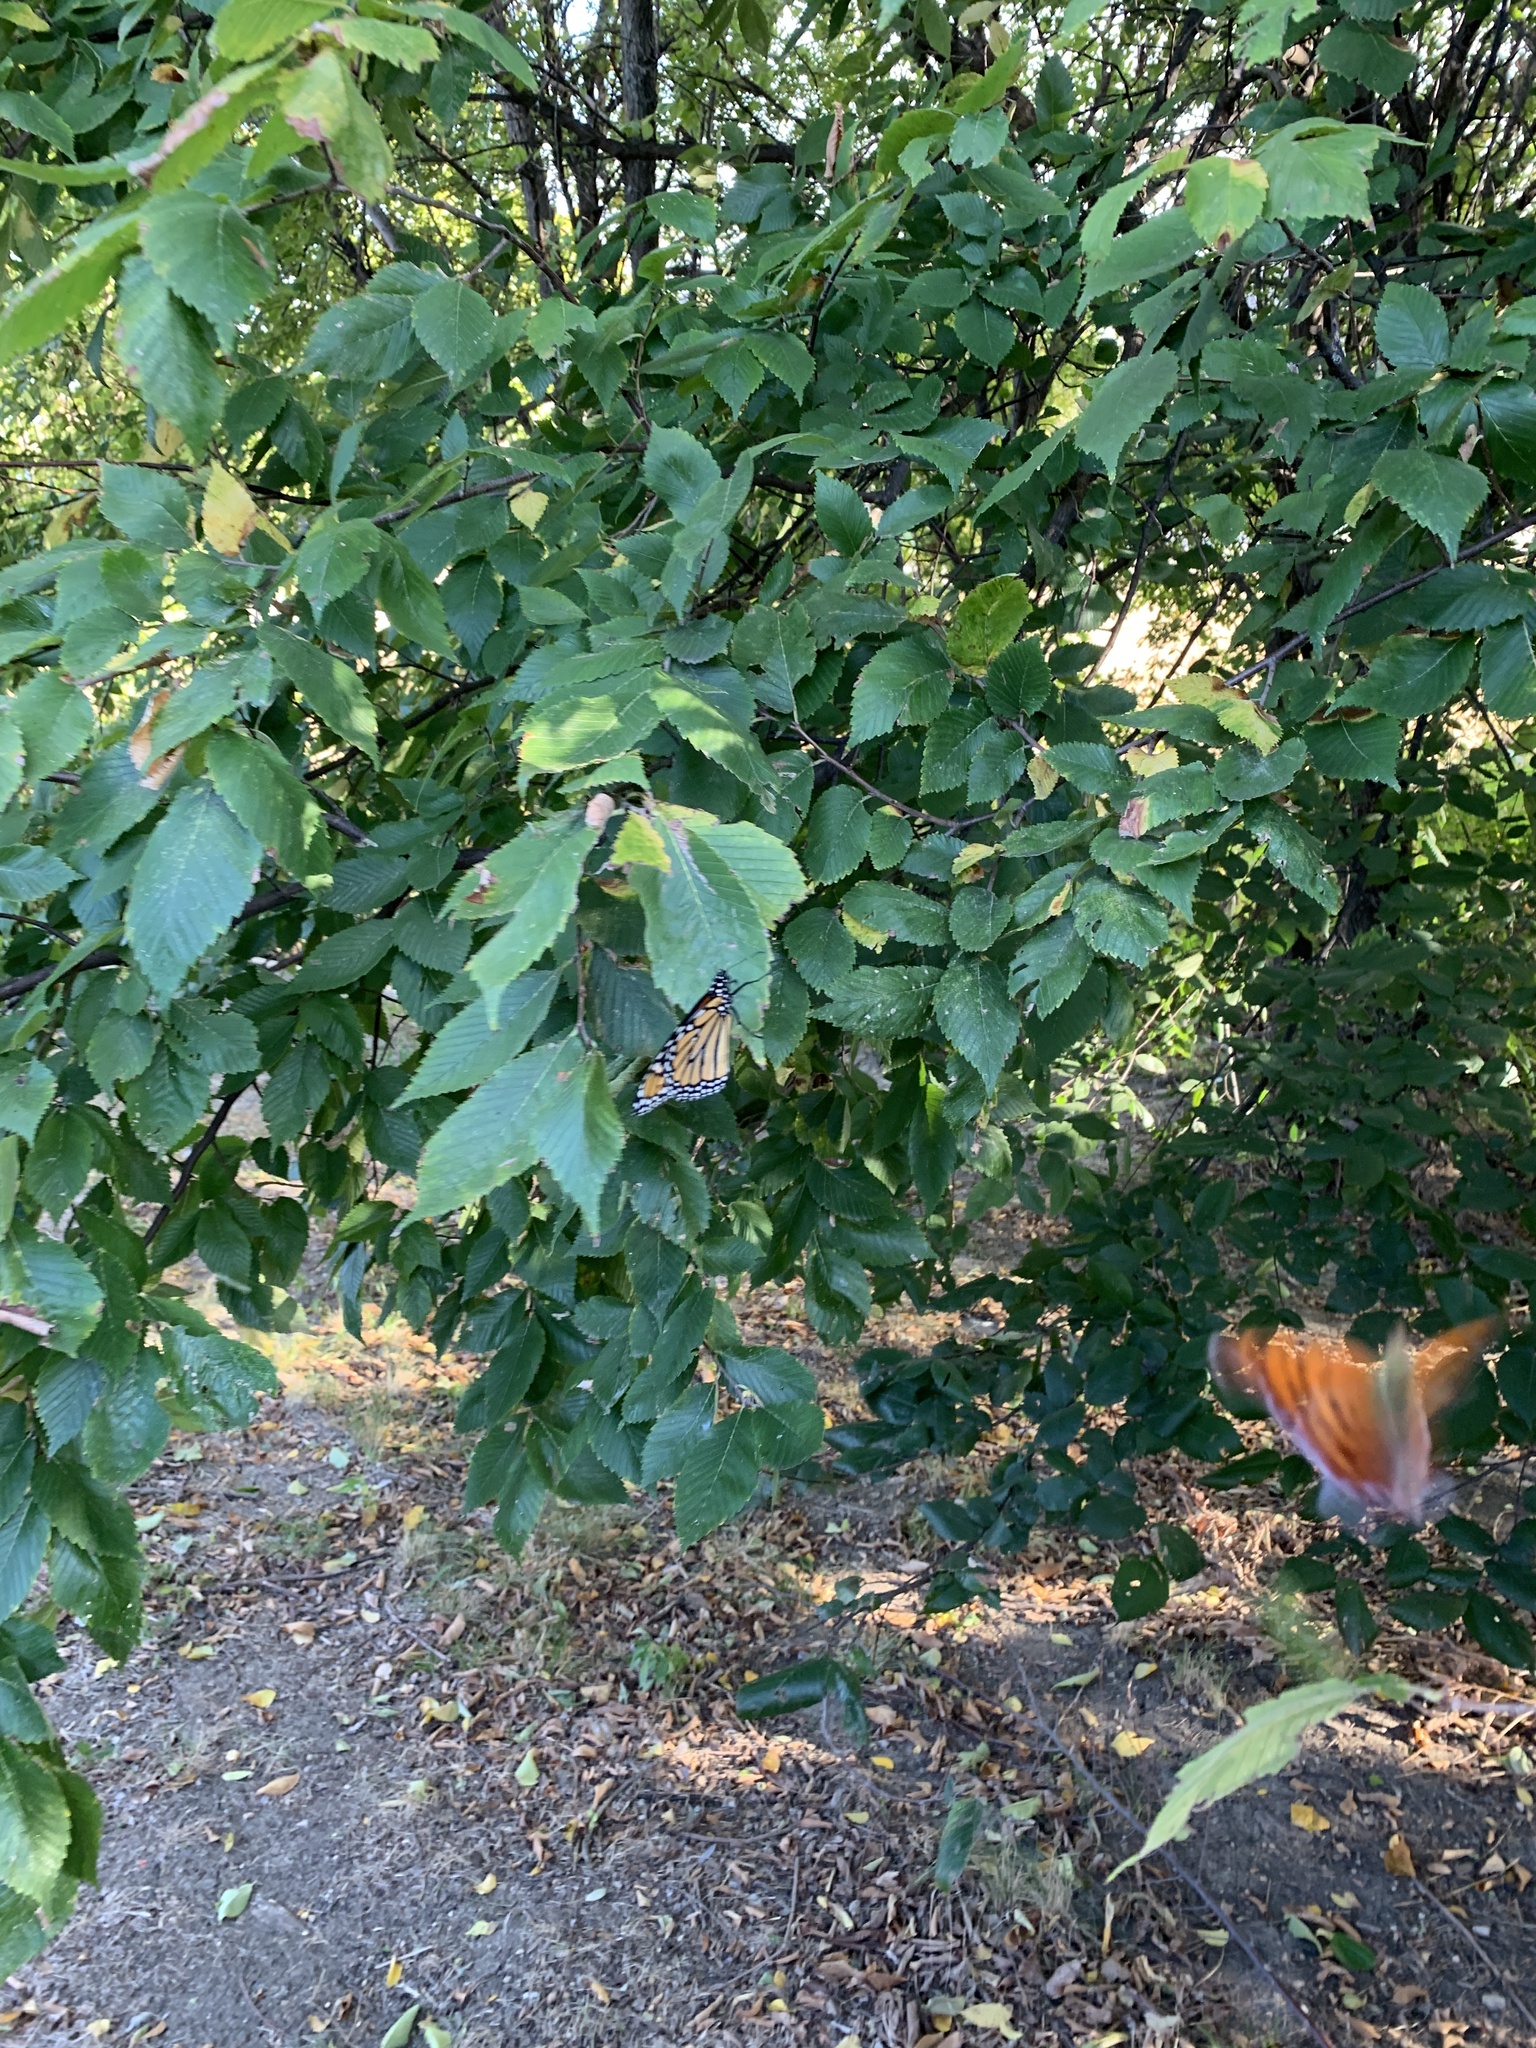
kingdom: Animalia
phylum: Arthropoda
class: Insecta
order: Lepidoptera
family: Nymphalidae
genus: Danaus
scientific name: Danaus plexippus
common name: Monarch
